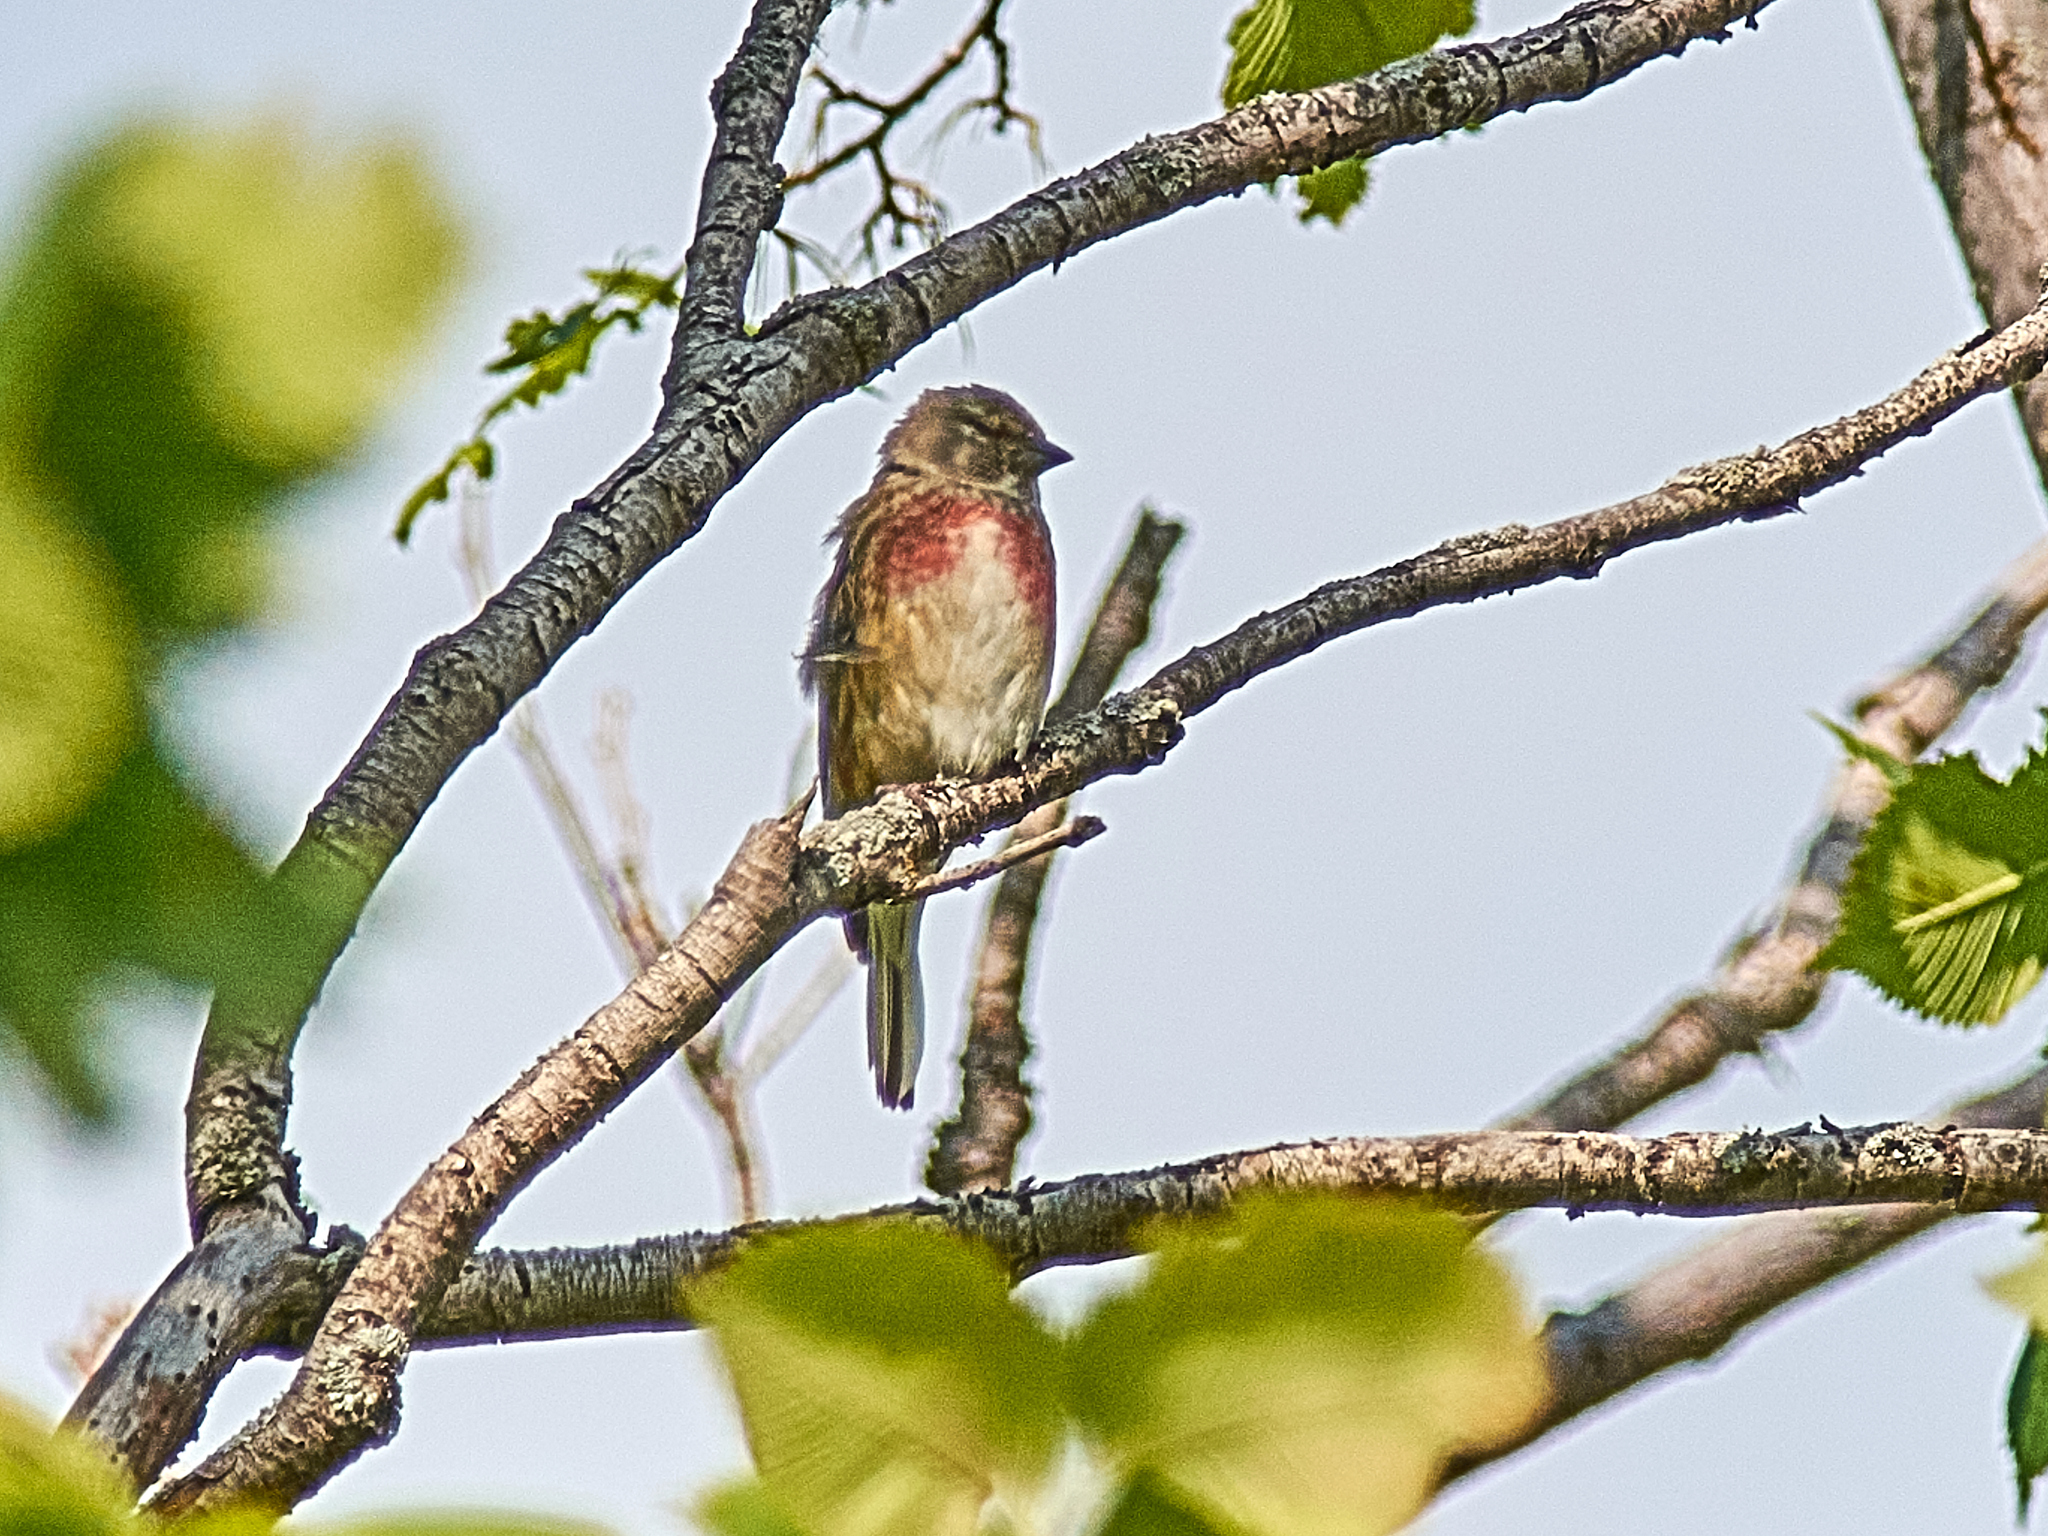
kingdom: Animalia
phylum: Chordata
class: Aves
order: Passeriformes
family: Fringillidae
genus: Linaria
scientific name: Linaria cannabina
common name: Common linnet
